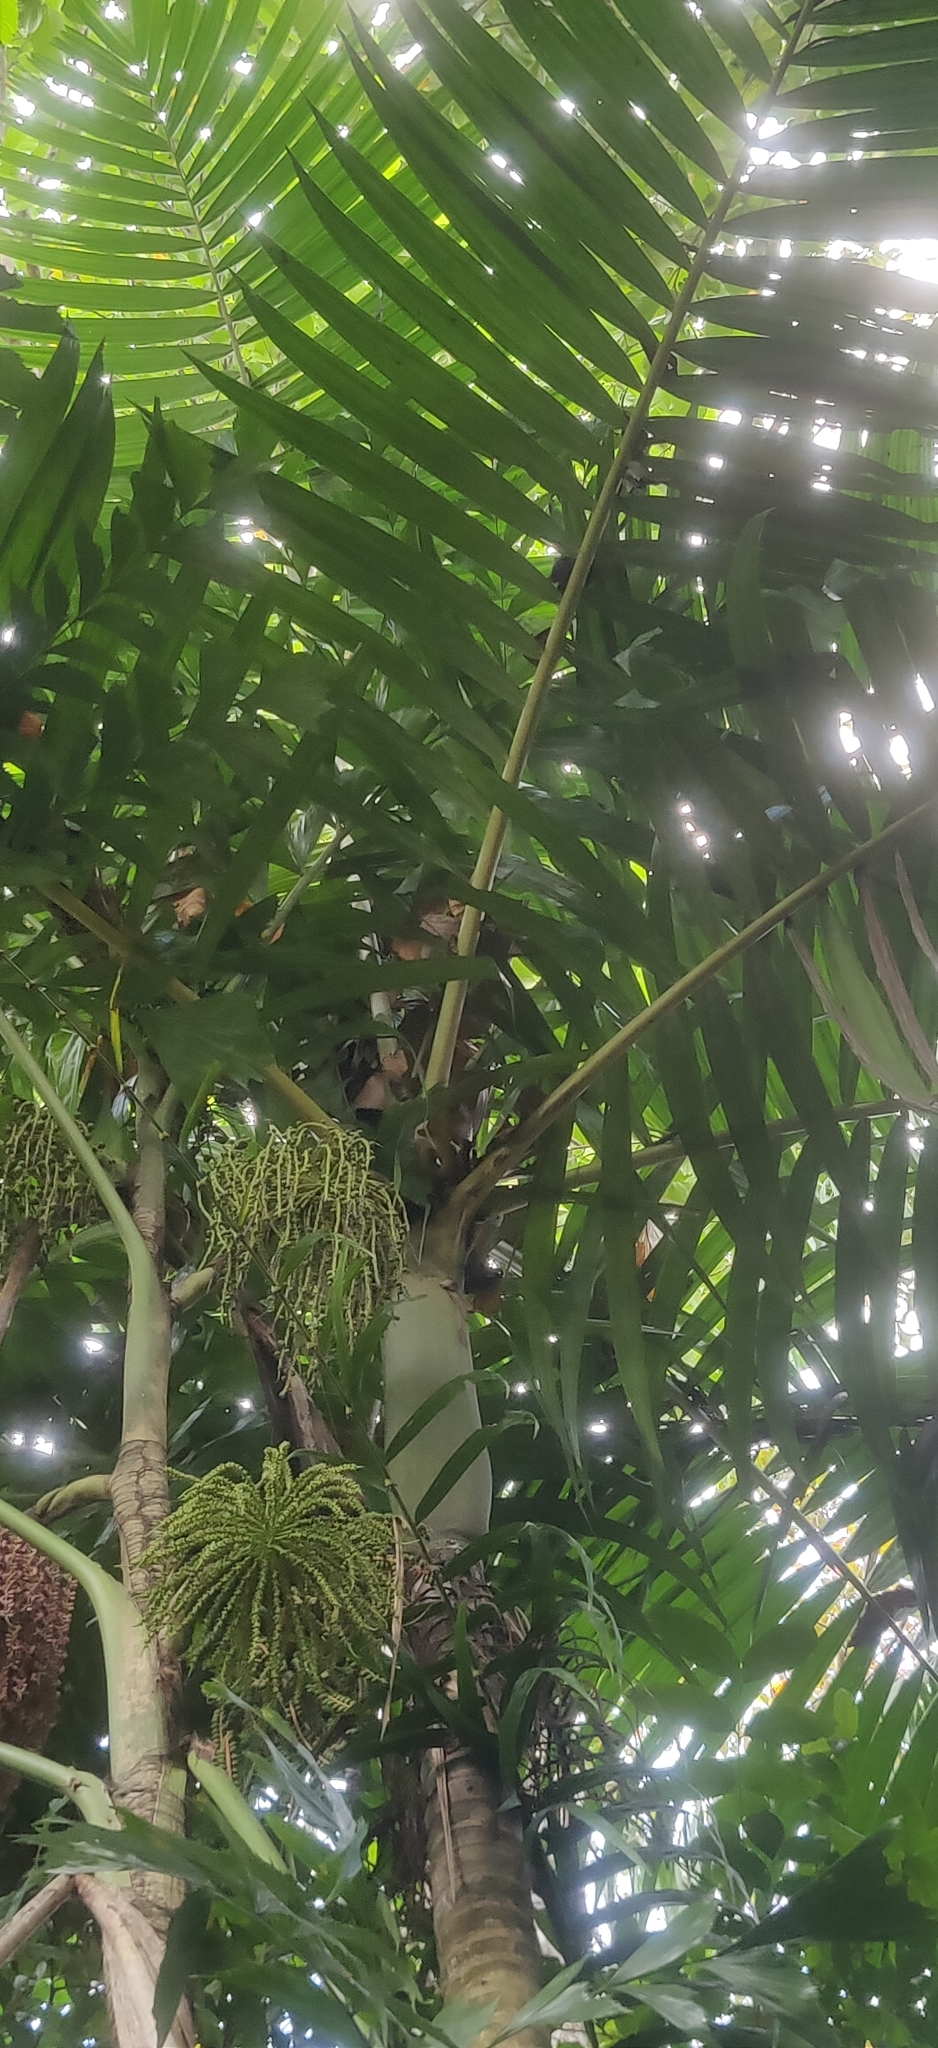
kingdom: Plantae
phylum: Tracheophyta
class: Liliopsida
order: Arecales
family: Arecaceae
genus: Pinanga
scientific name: Pinanga manii
